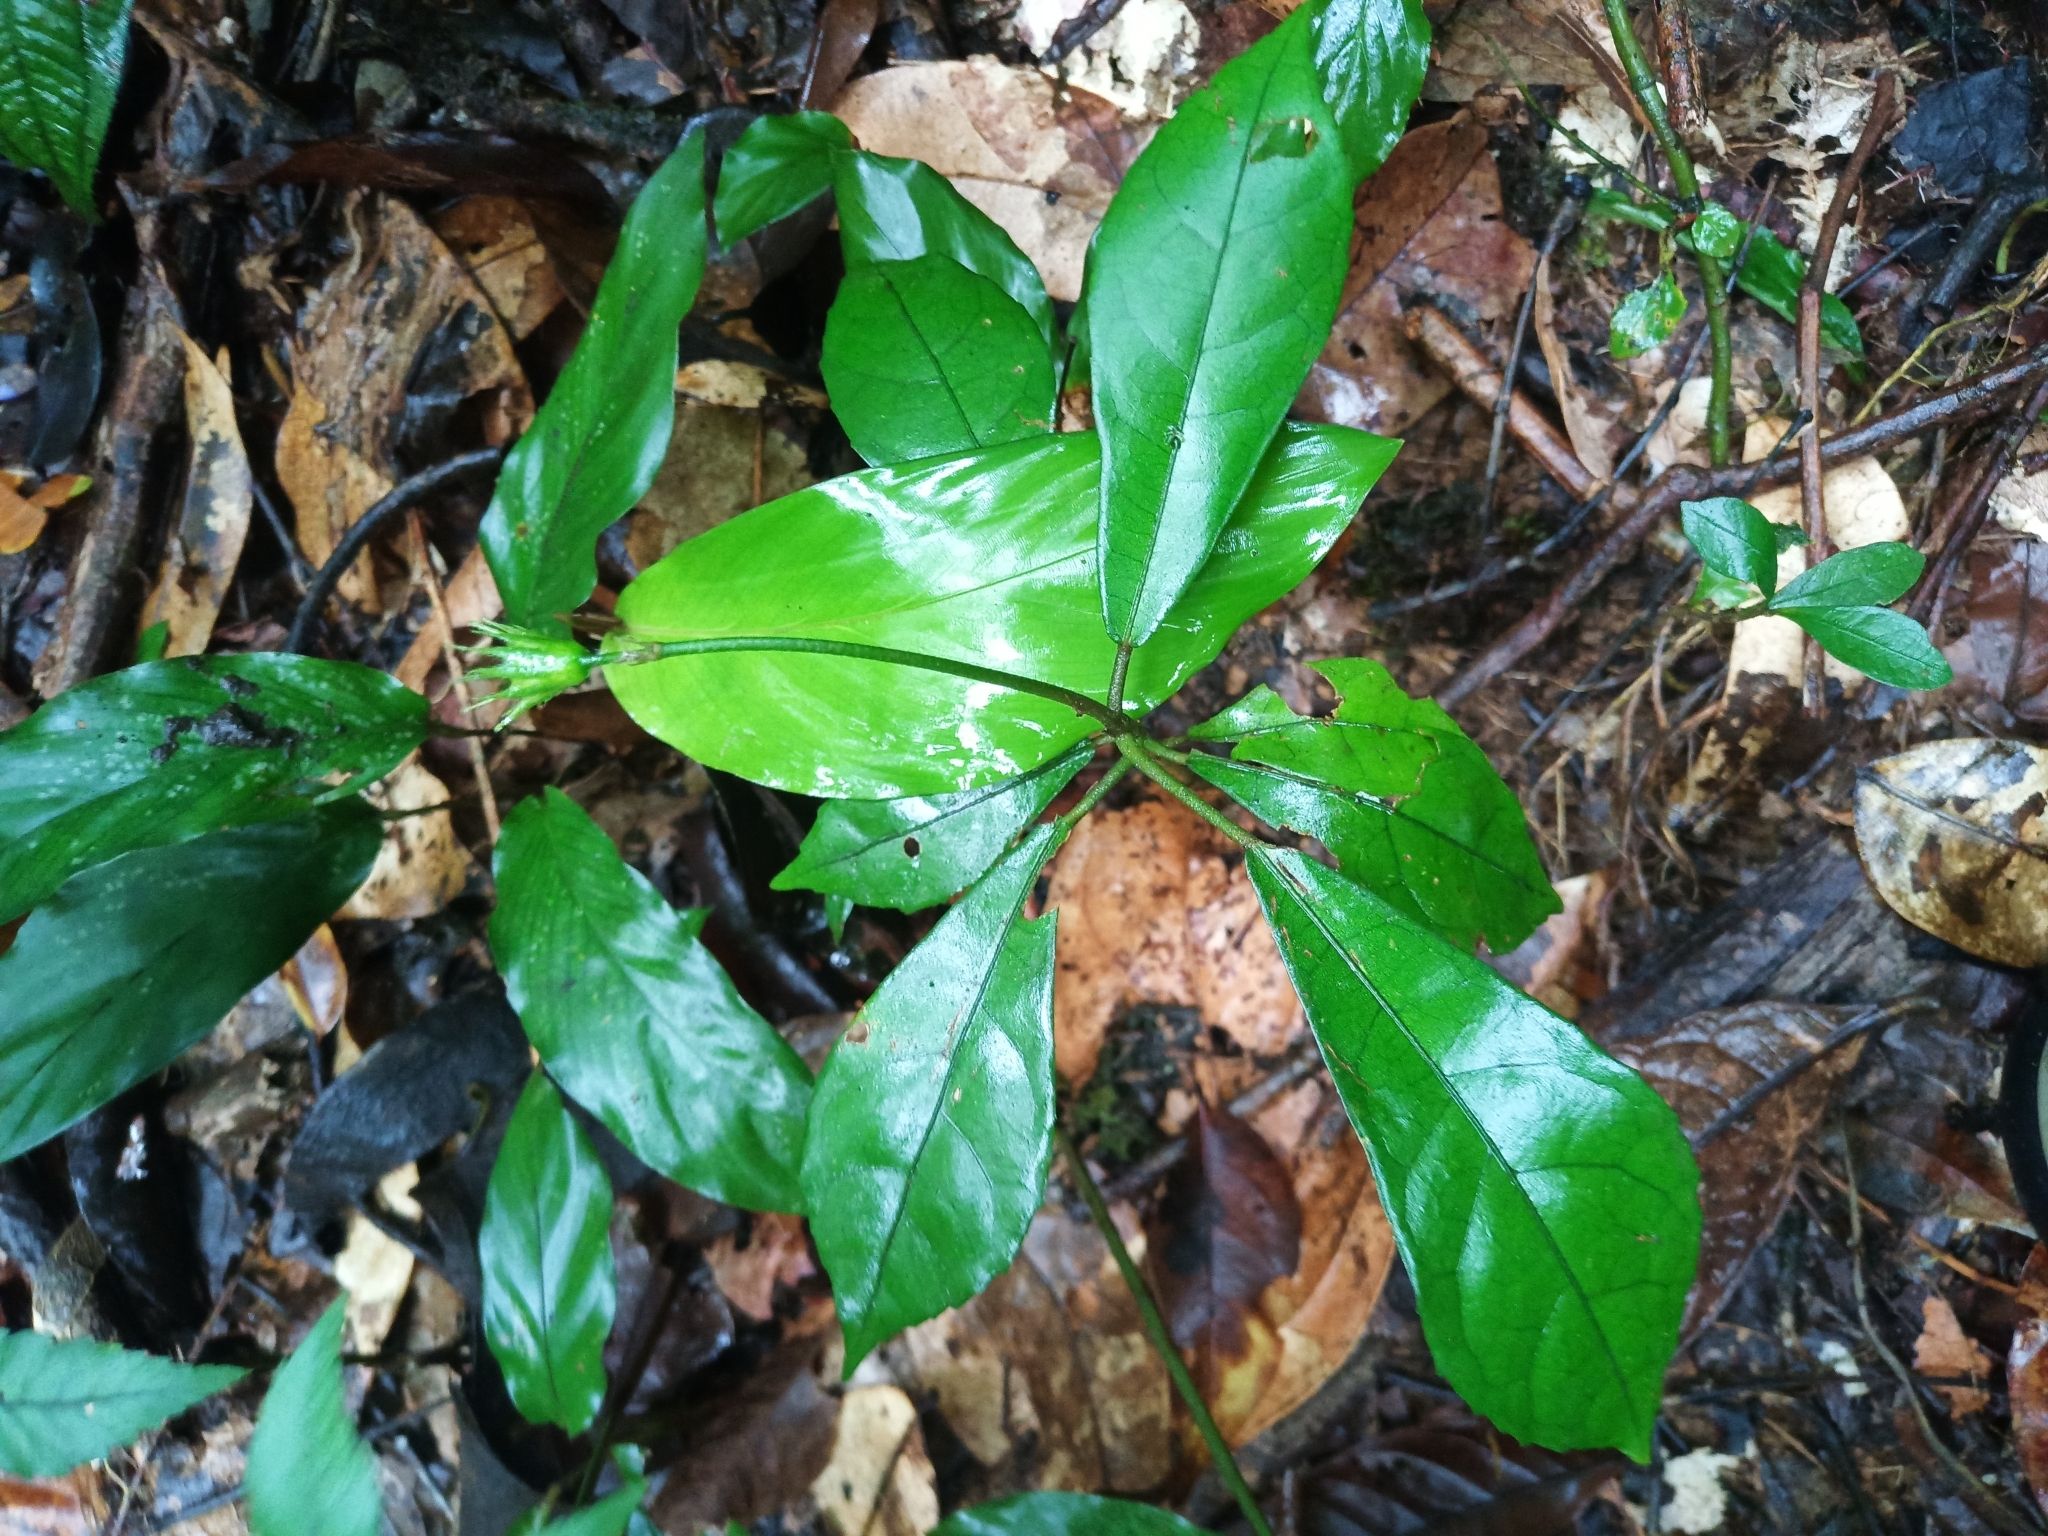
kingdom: Plantae
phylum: Tracheophyta
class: Magnoliopsida
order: Malvales
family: Malvaceae
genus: Pavonia
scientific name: Pavonia castaneifolia
